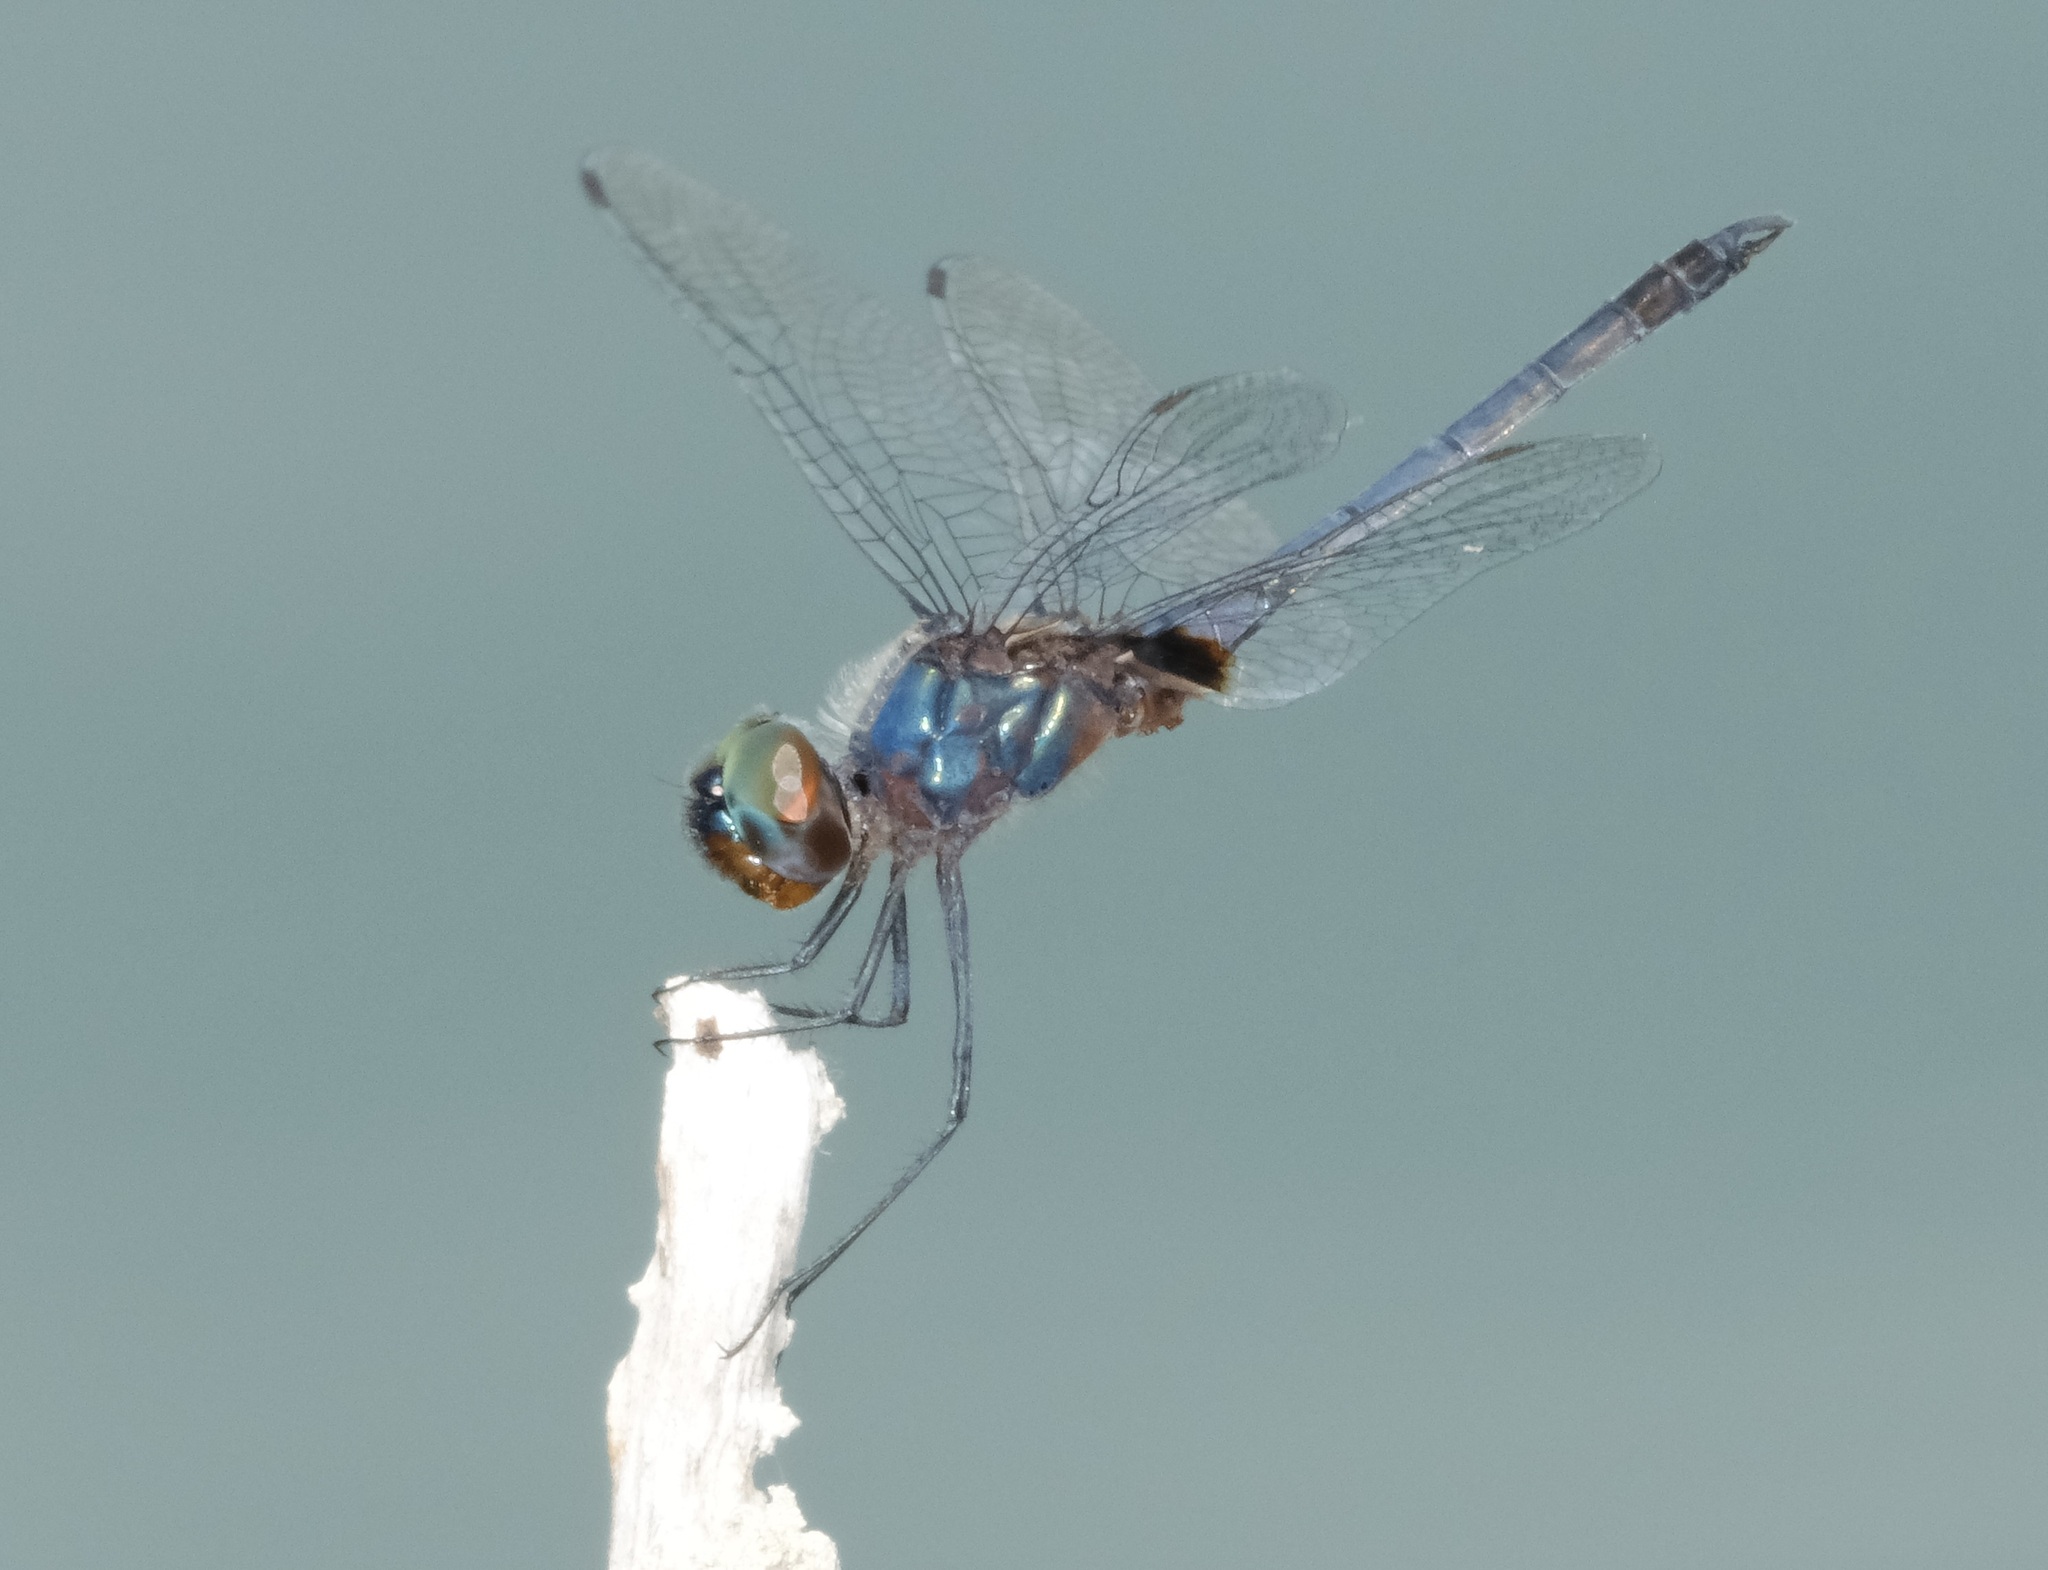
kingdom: Animalia
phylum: Arthropoda
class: Insecta
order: Odonata
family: Libellulidae
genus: Idiataphe
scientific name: Idiataphe cubensis
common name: Metallic pennant
